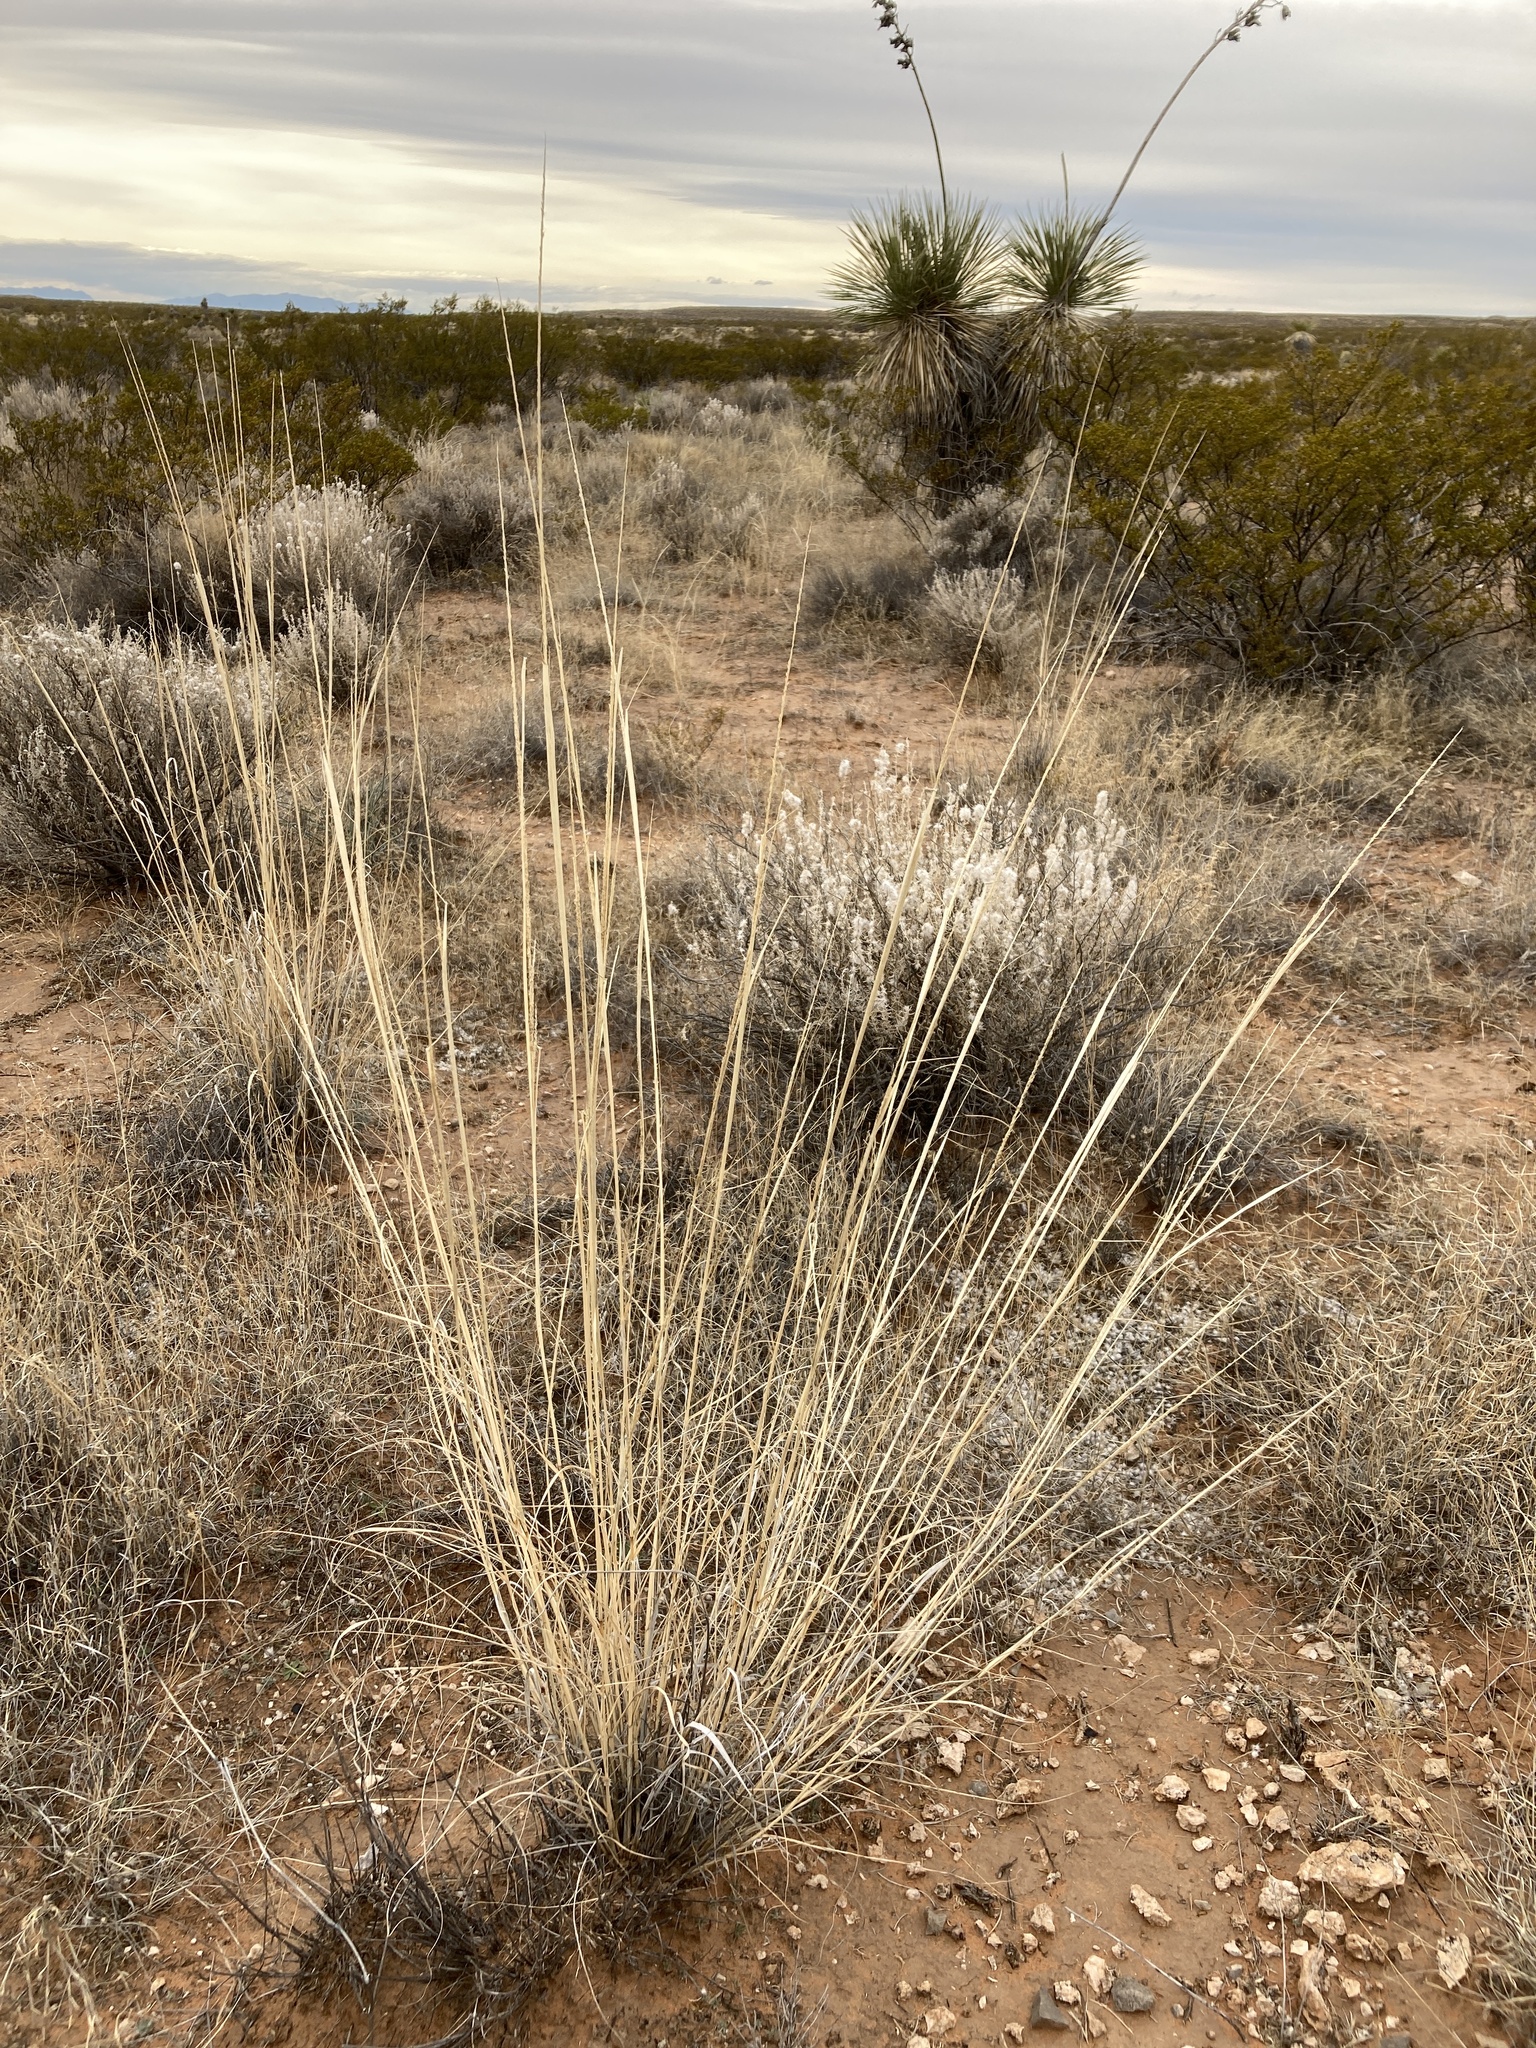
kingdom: Plantae
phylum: Tracheophyta
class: Liliopsida
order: Poales
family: Poaceae
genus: Sporobolus
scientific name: Sporobolus contractus
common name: Spike dropseed
